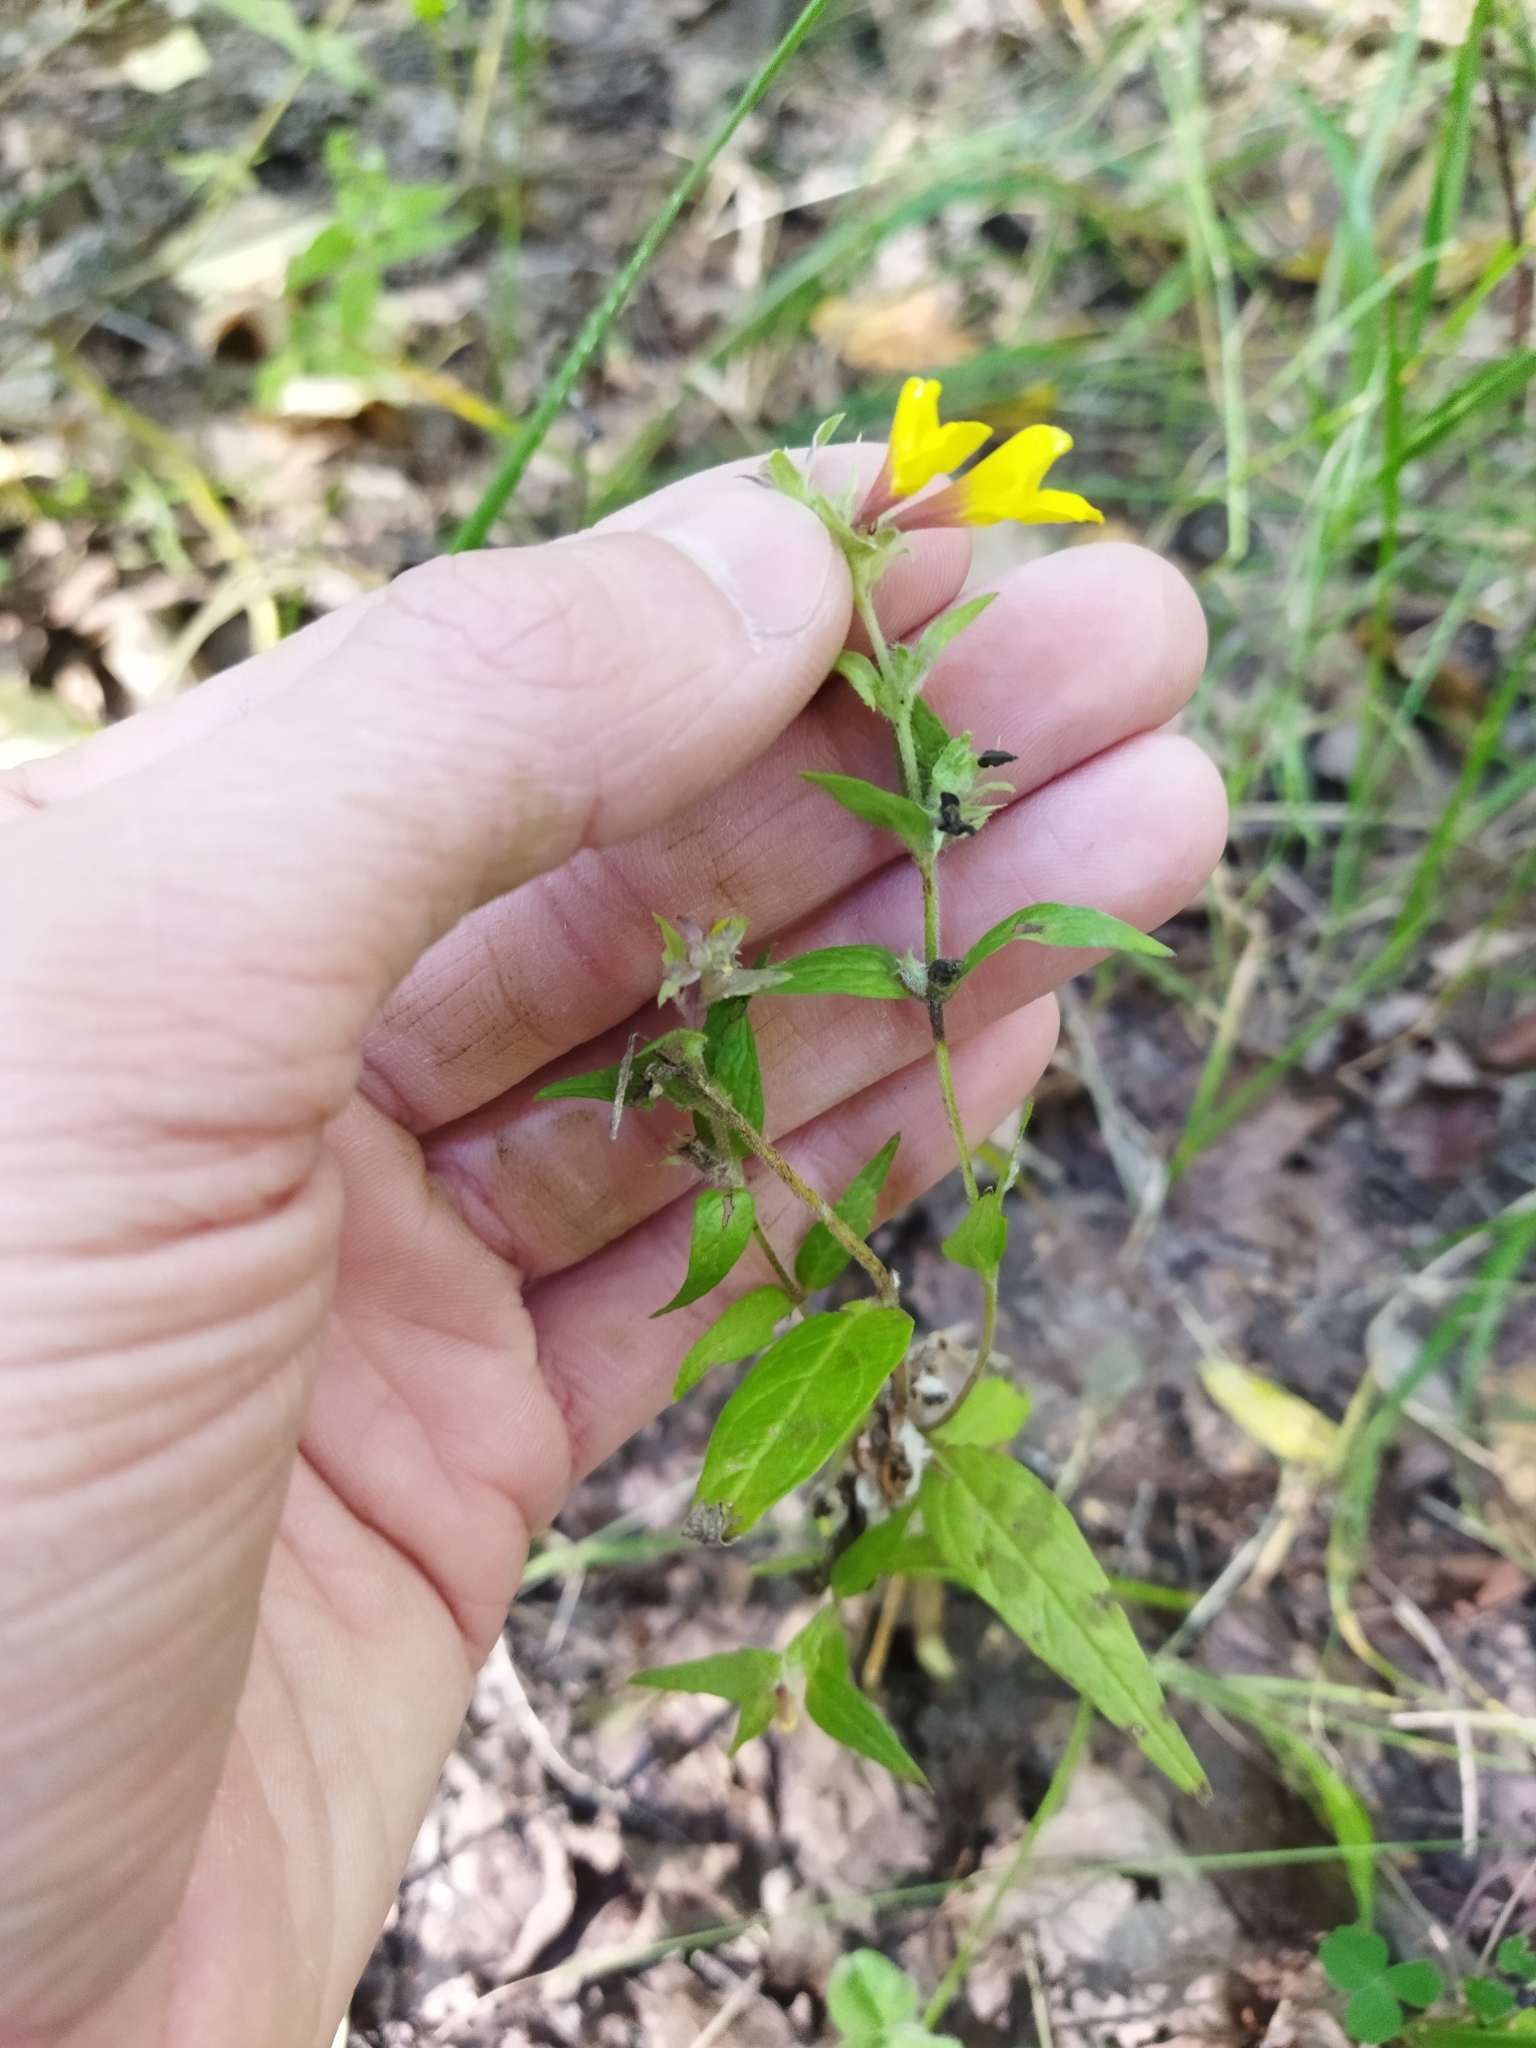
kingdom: Plantae
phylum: Tracheophyta
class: Magnoliopsida
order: Lamiales
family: Orobanchaceae
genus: Melampyrum
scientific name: Melampyrum nemorosum
